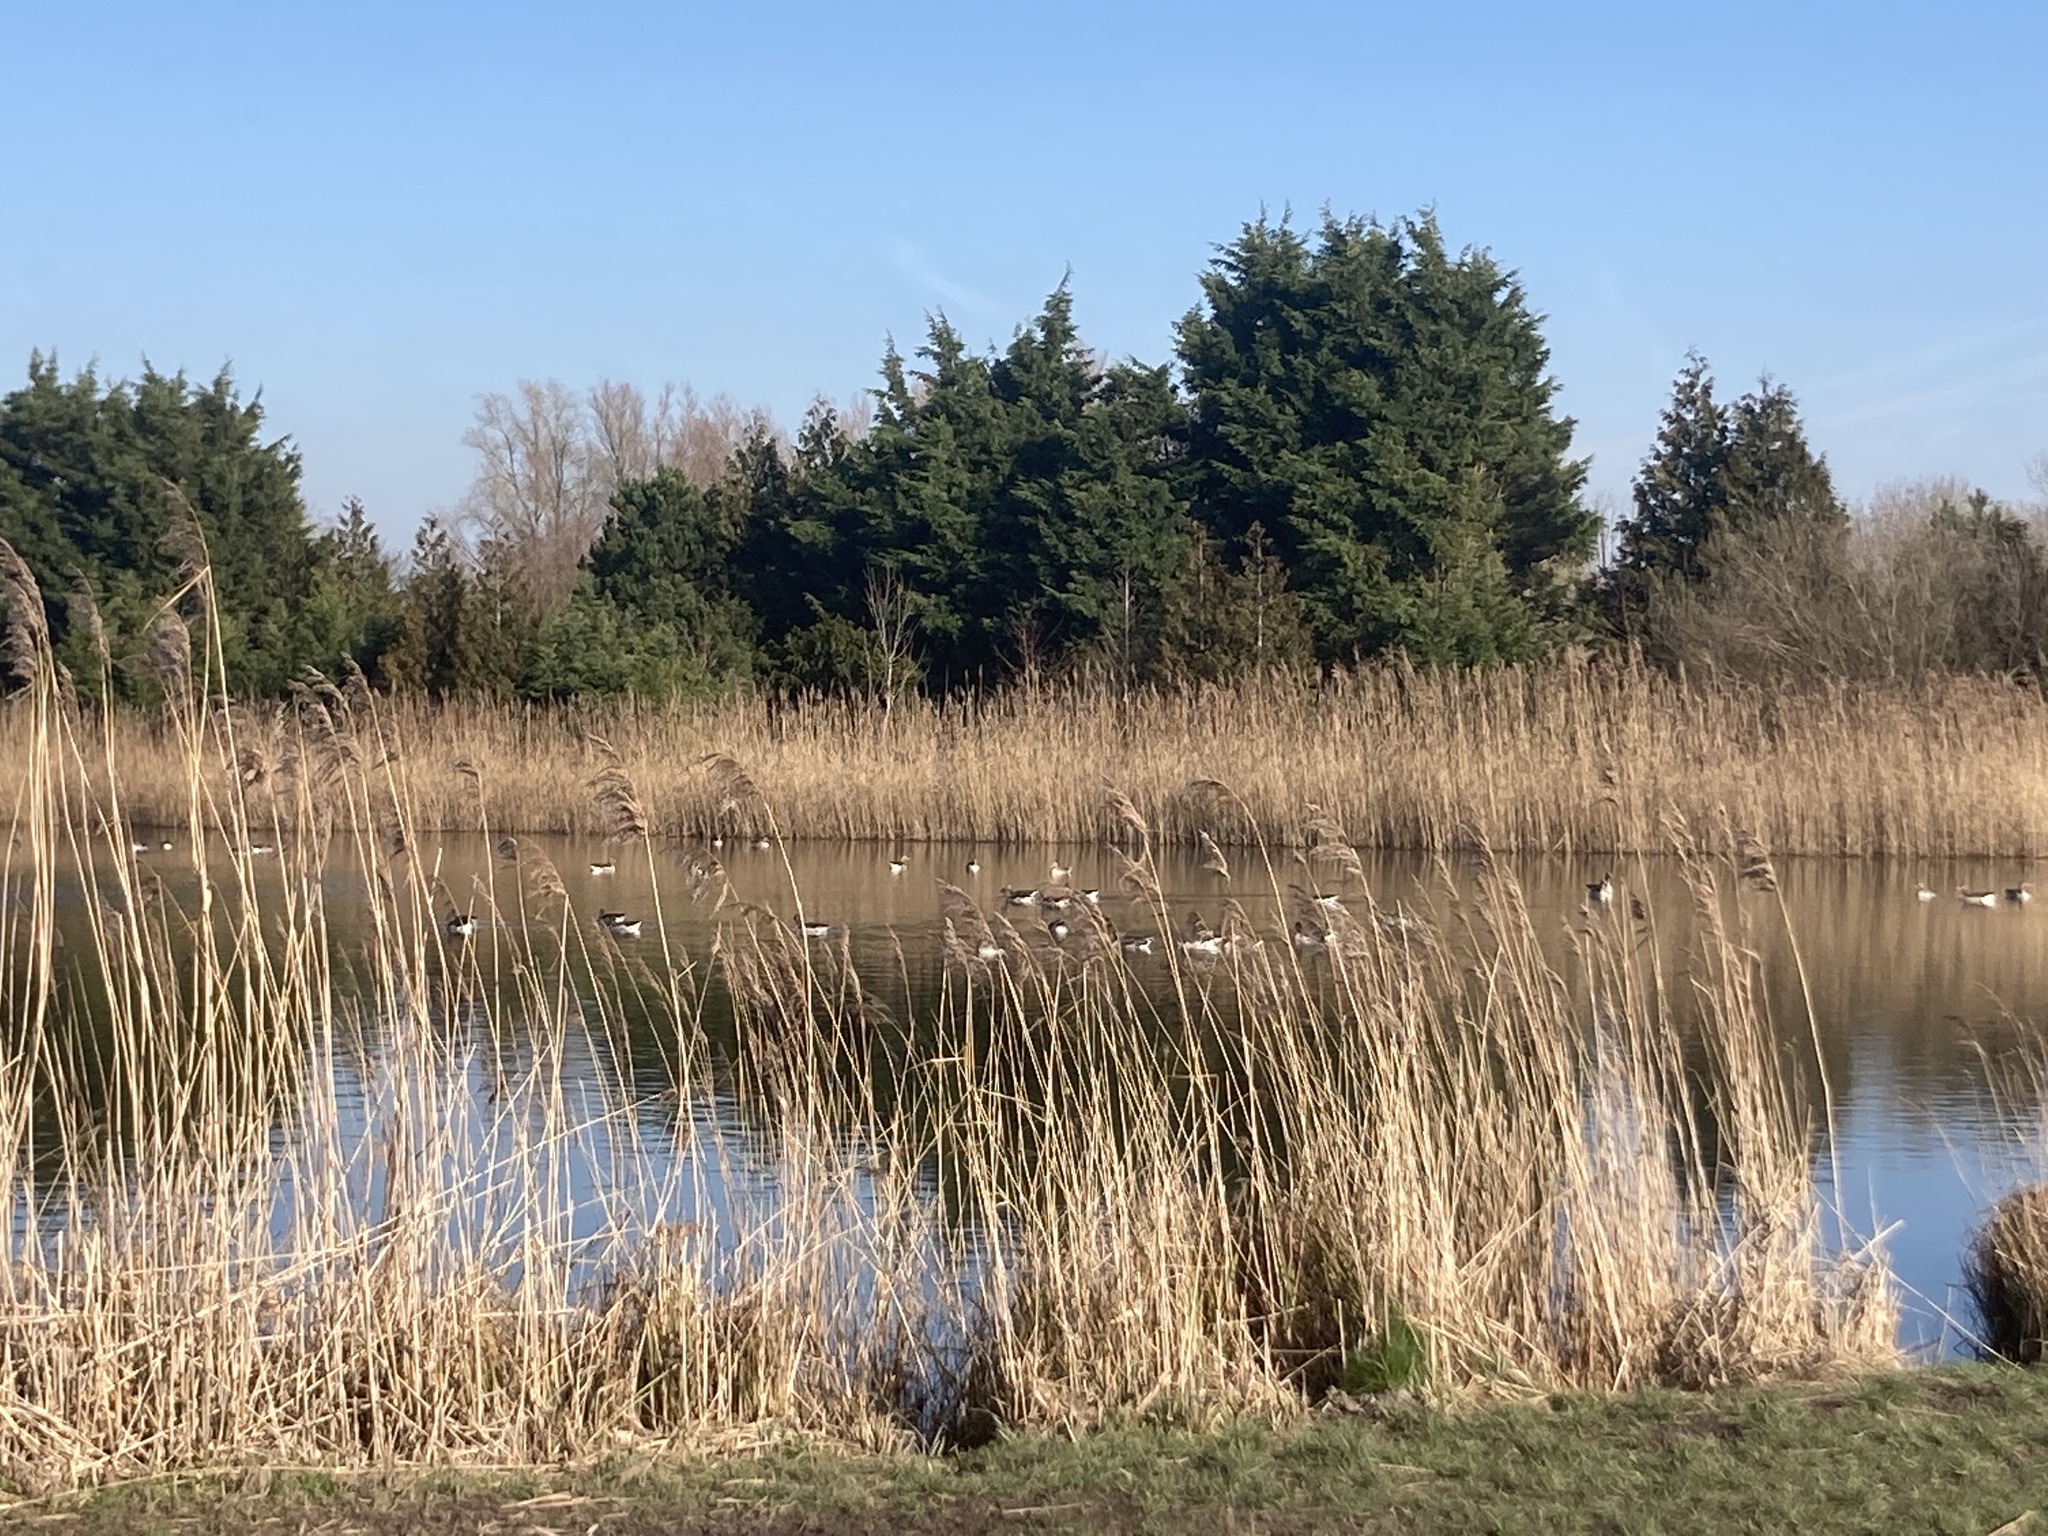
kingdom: Animalia
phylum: Chordata
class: Aves
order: Anseriformes
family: Anatidae
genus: Mareca
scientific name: Mareca strepera
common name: Gadwall
